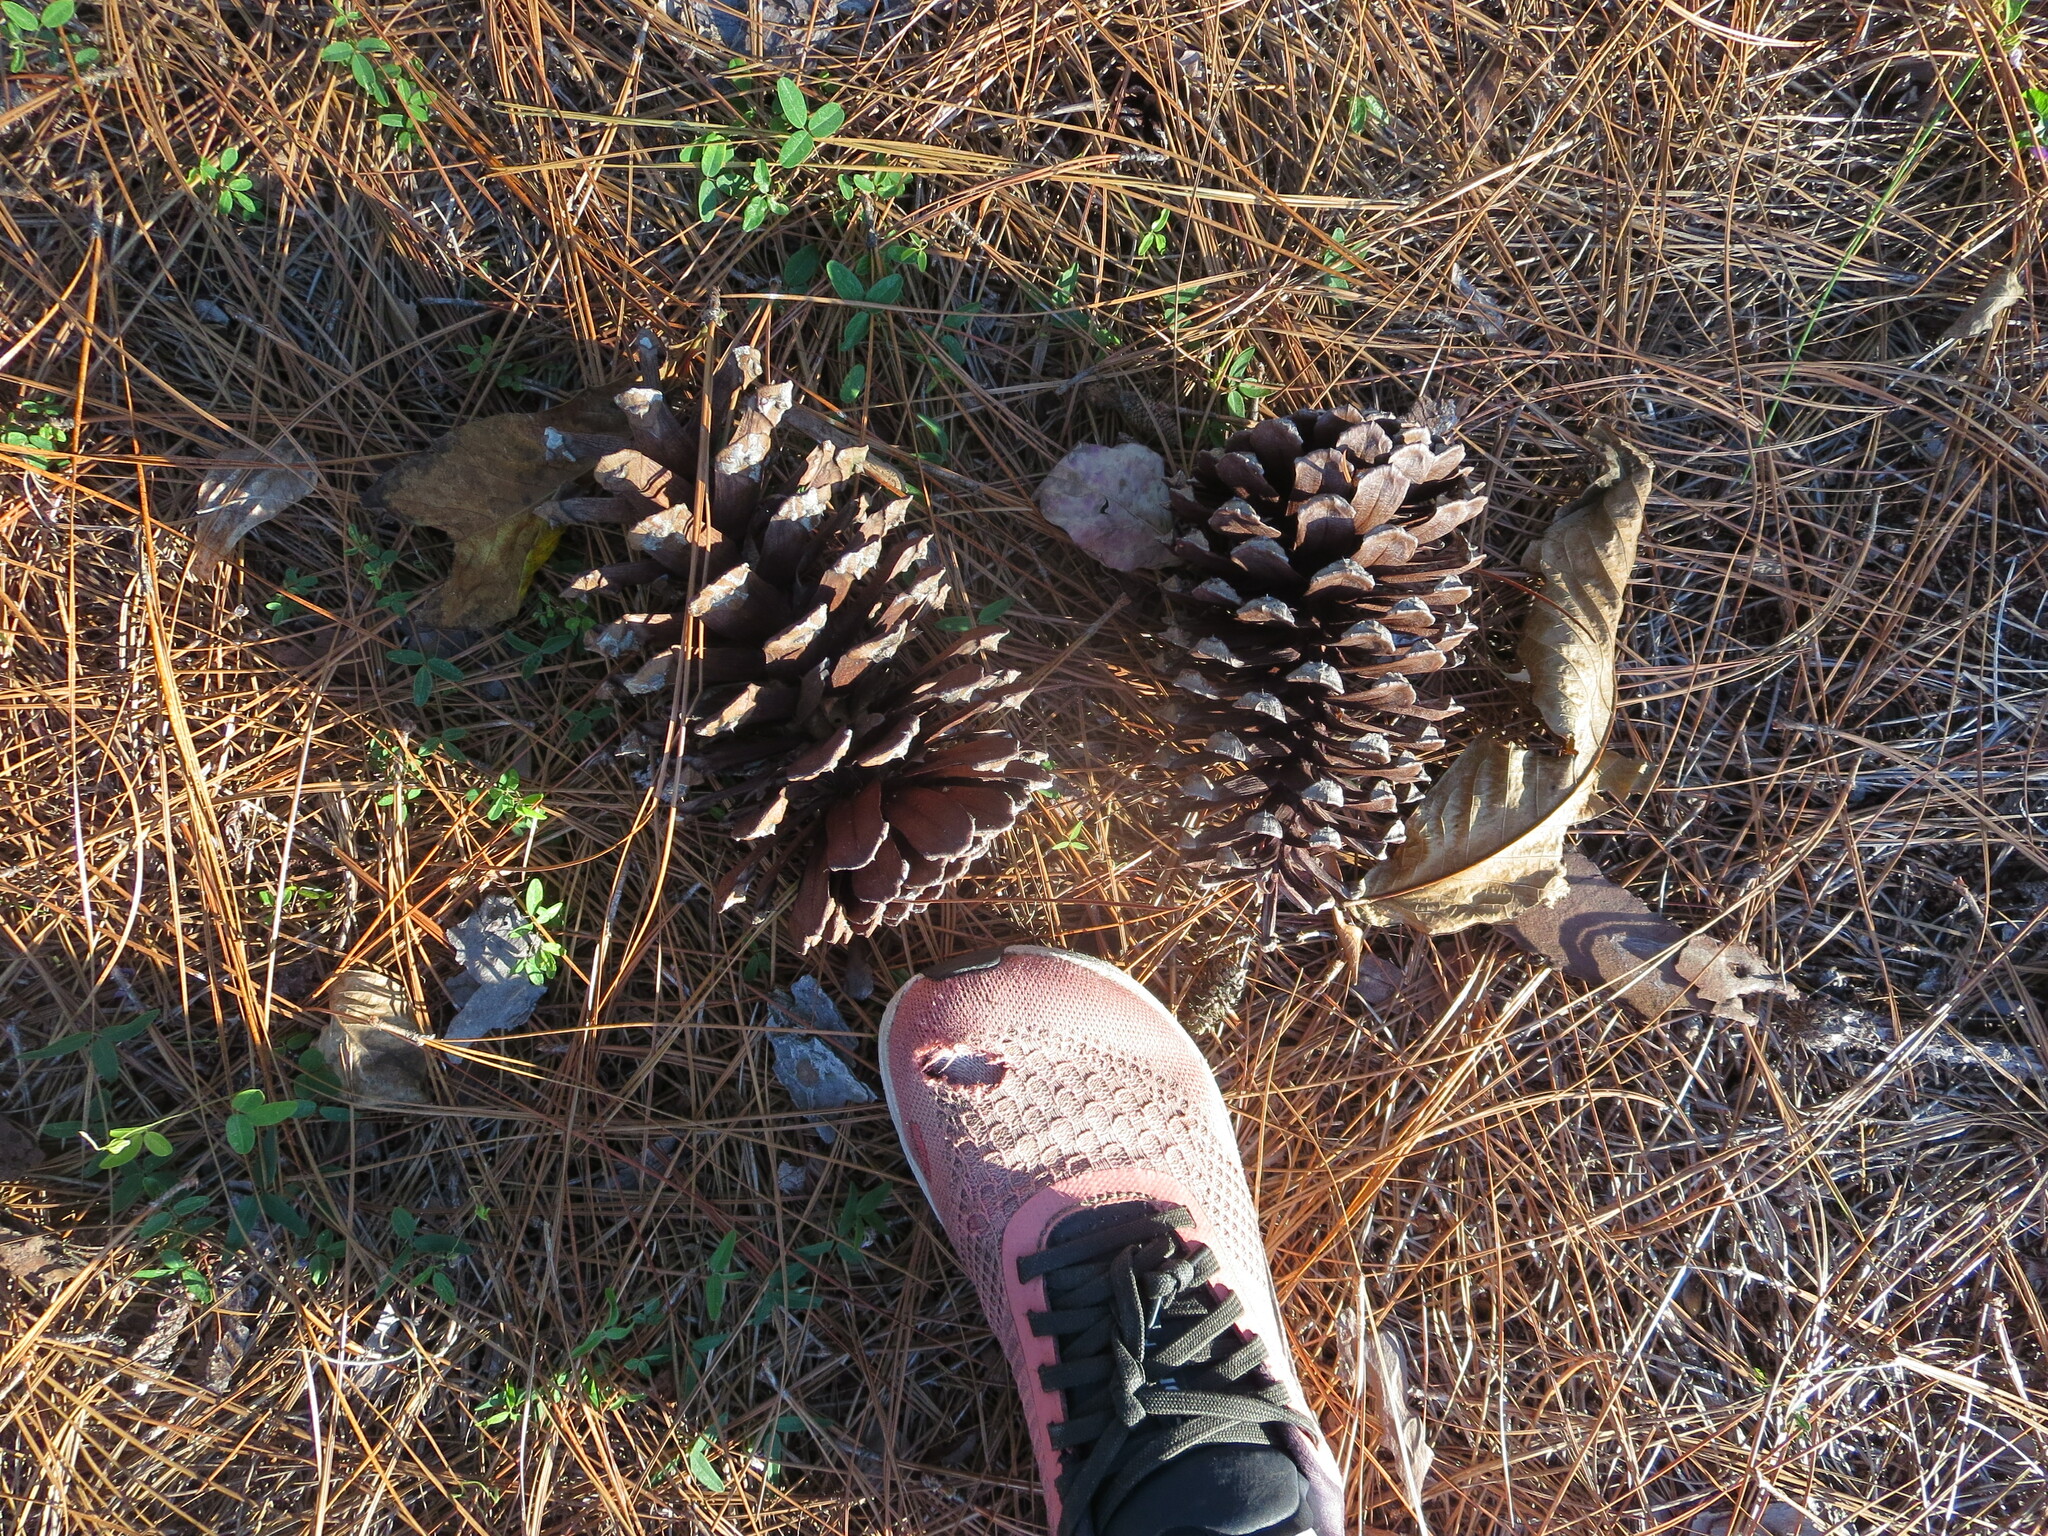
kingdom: Plantae
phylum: Tracheophyta
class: Pinopsida
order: Pinales
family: Pinaceae
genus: Pinus
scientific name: Pinus palustris
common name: Longleaf pine
